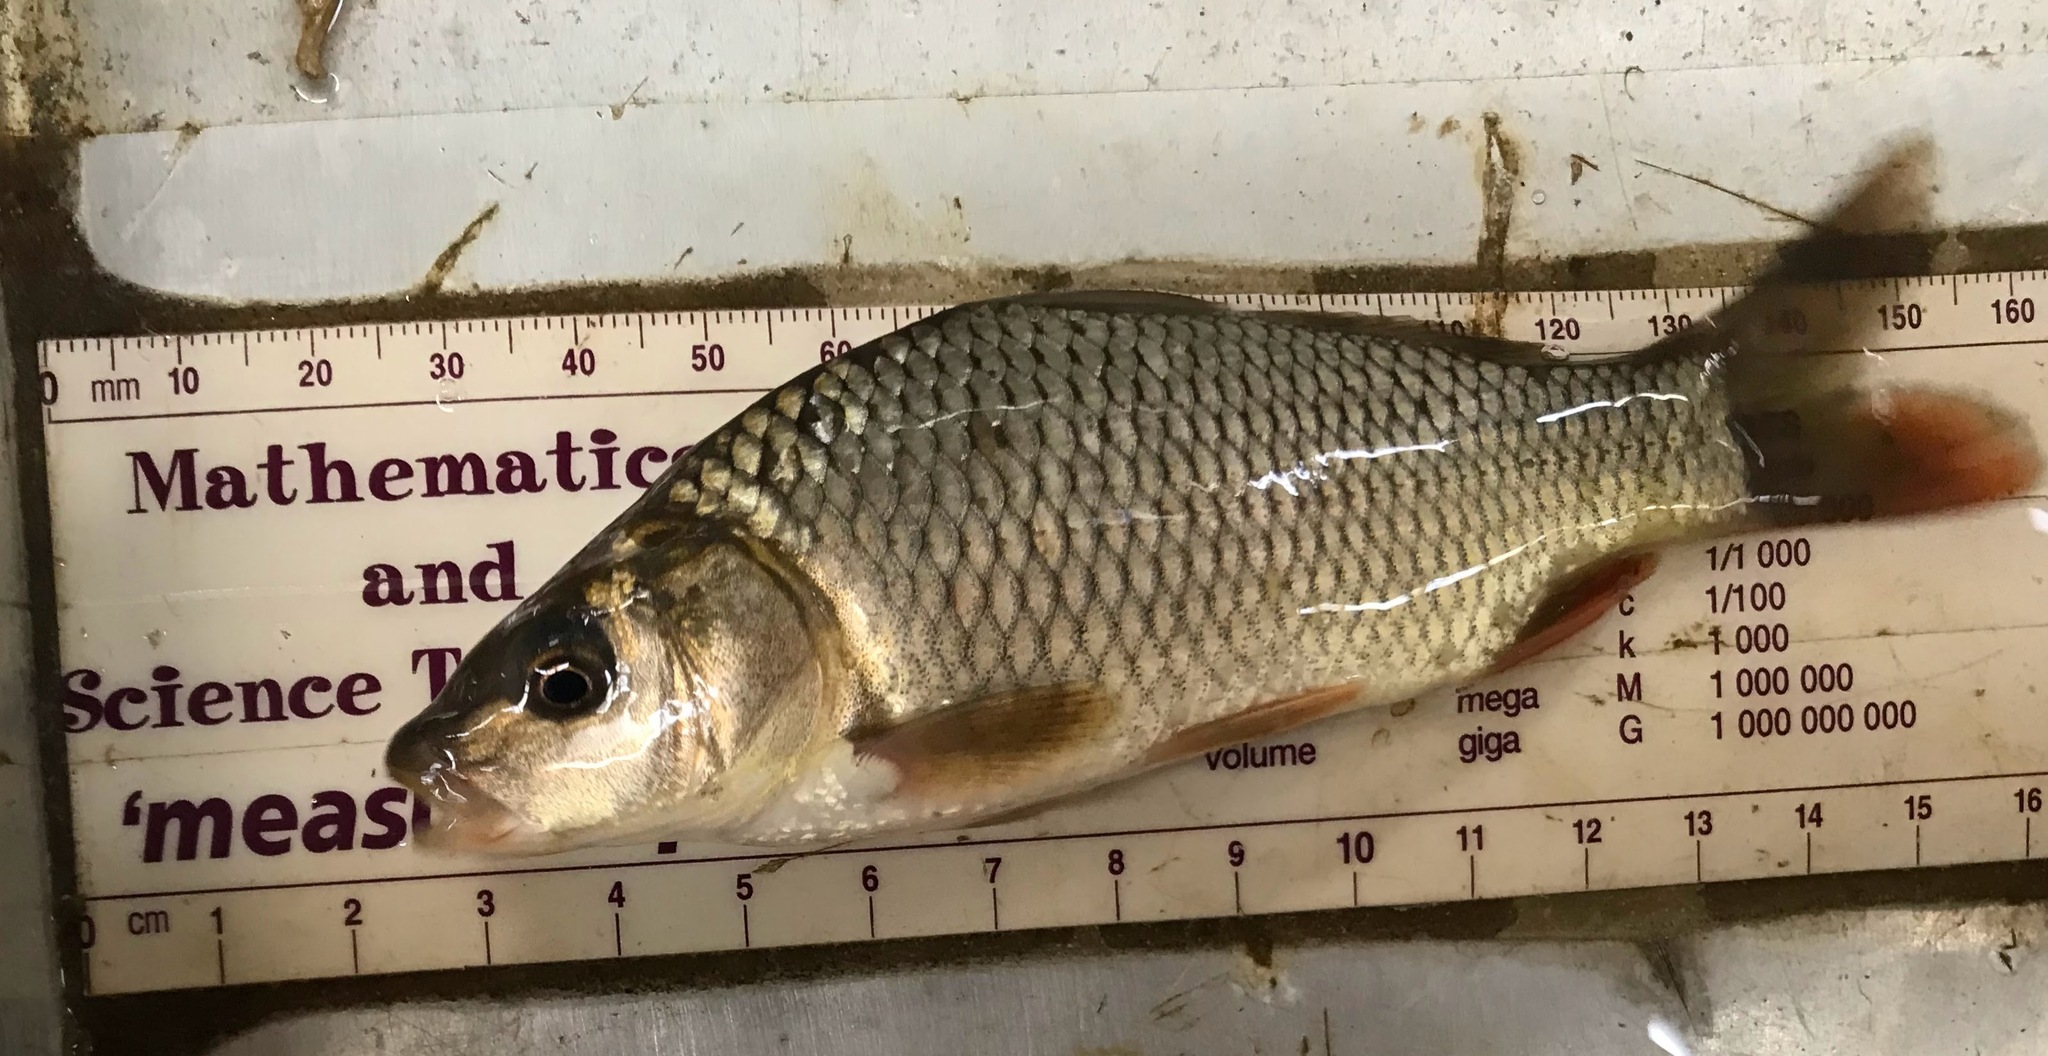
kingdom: Animalia
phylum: Chordata
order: Cypriniformes
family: Cyprinidae
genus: Cyprinus
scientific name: Cyprinus carpio
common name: Common carp
